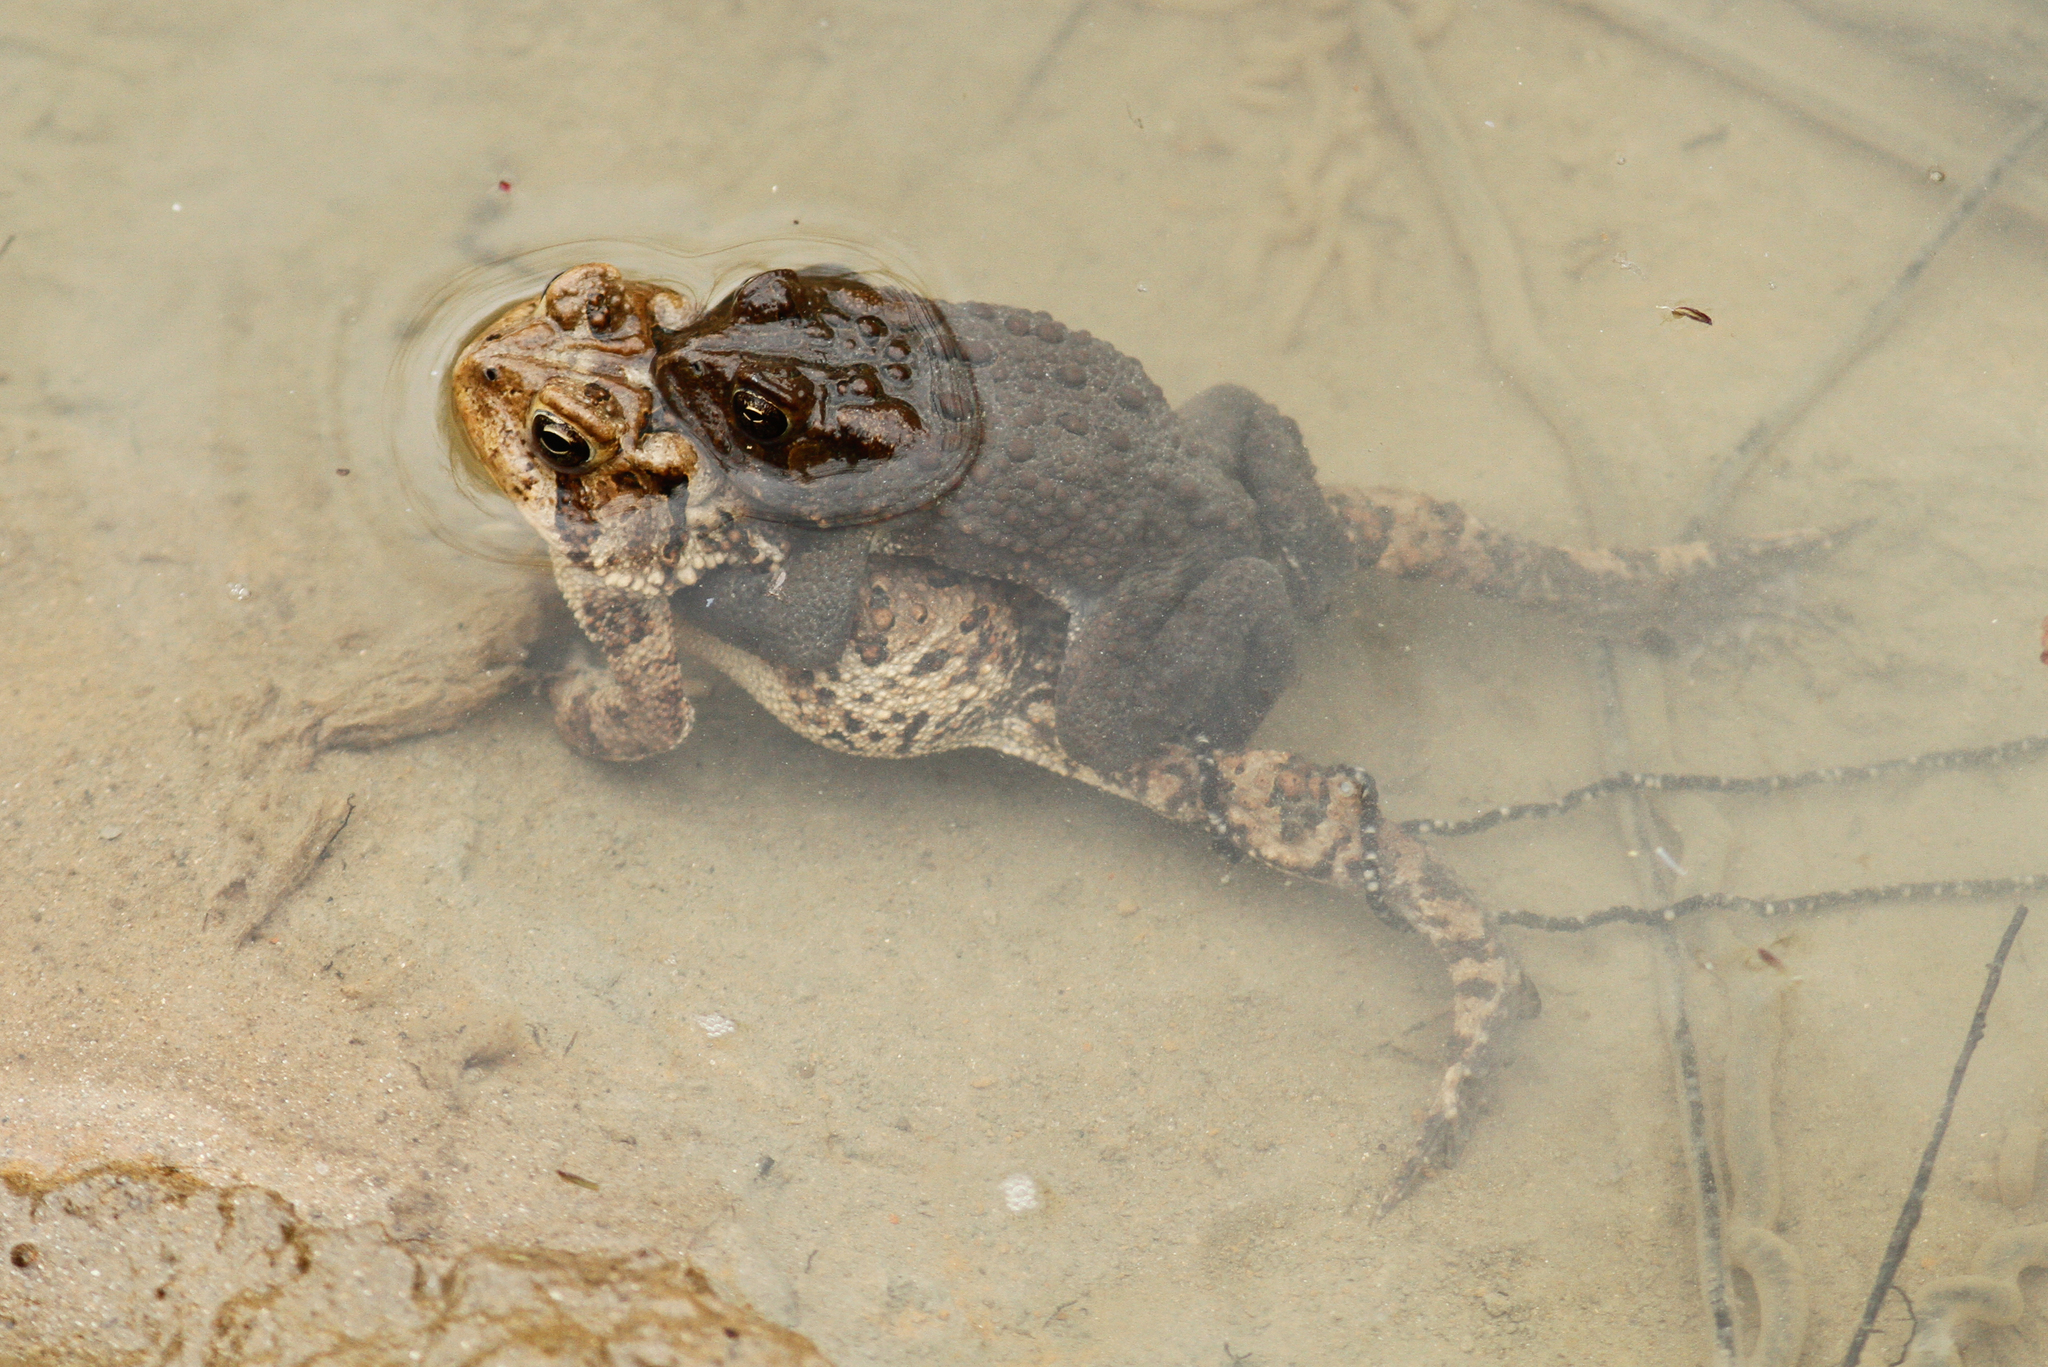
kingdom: Animalia
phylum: Chordata
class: Amphibia
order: Anura
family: Bufonidae
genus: Anaxyrus
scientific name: Anaxyrus americanus
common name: American toad
